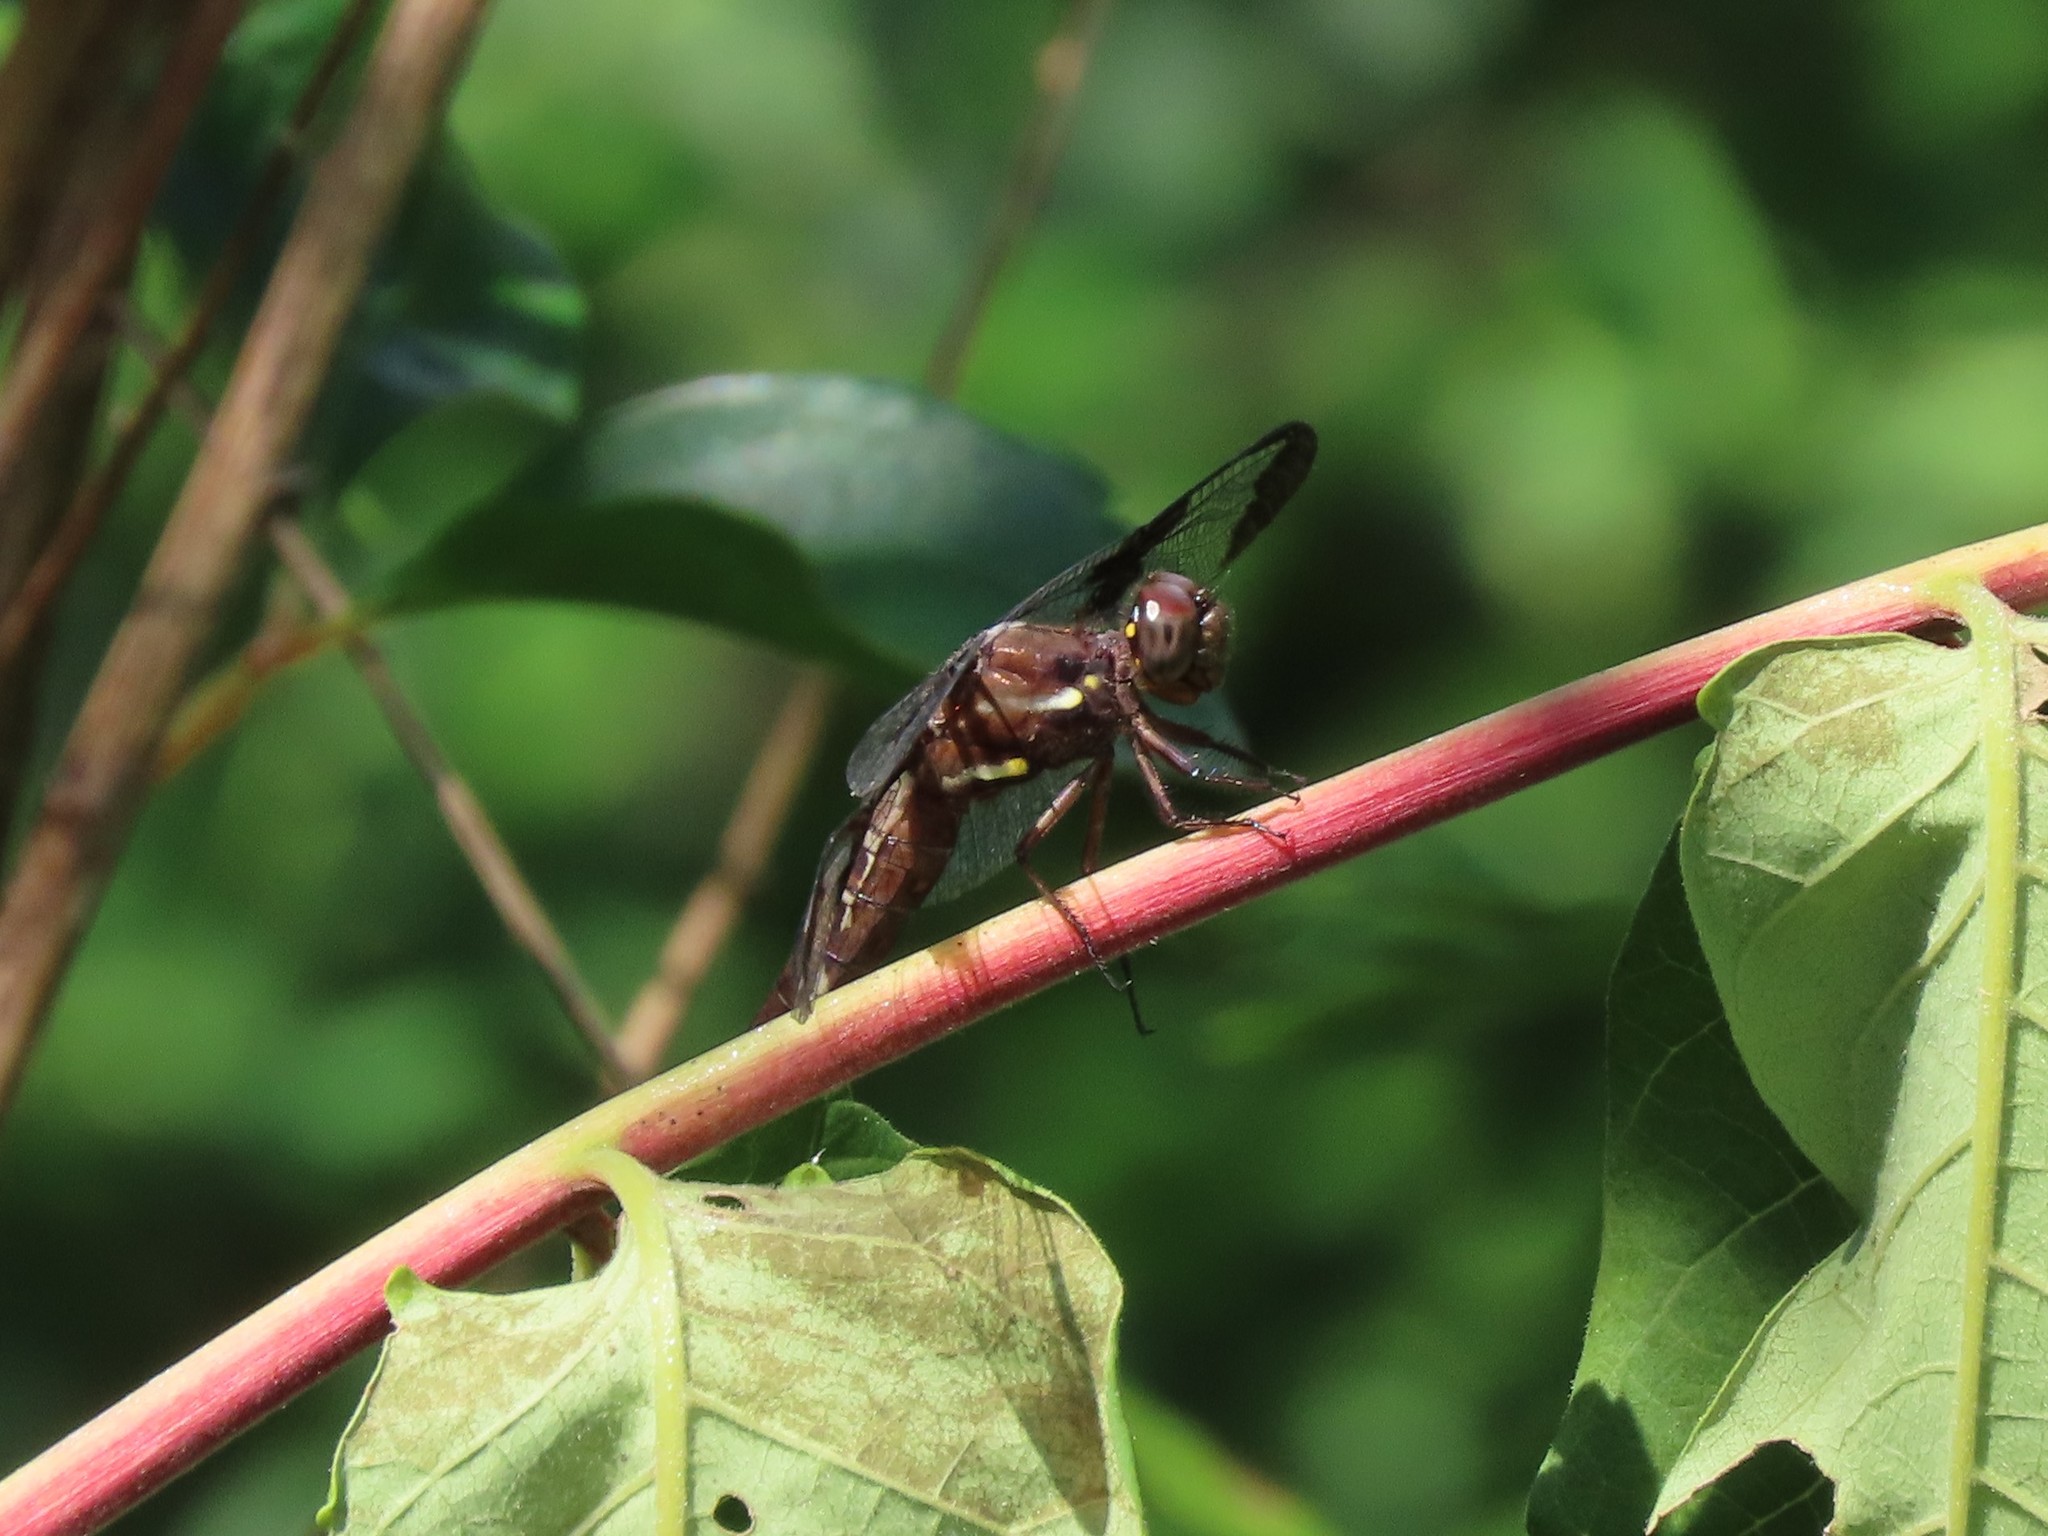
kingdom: Animalia
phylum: Arthropoda
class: Insecta
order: Odonata
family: Libellulidae
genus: Plathemis
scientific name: Plathemis lydia
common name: Common whitetail
